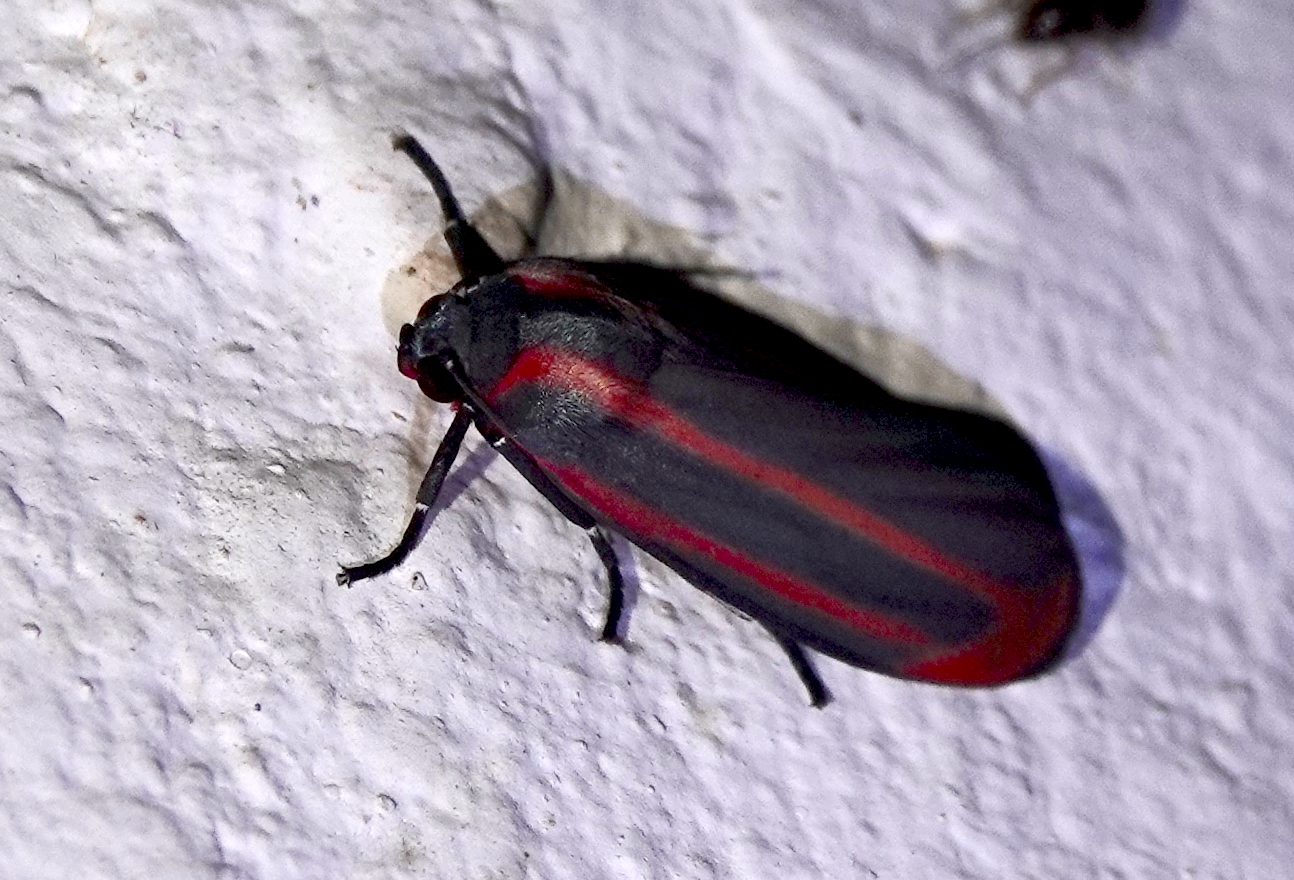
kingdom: Animalia
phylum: Arthropoda
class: Insecta
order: Lepidoptera
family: Erebidae
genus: Cissura
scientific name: Cissura plumbea
